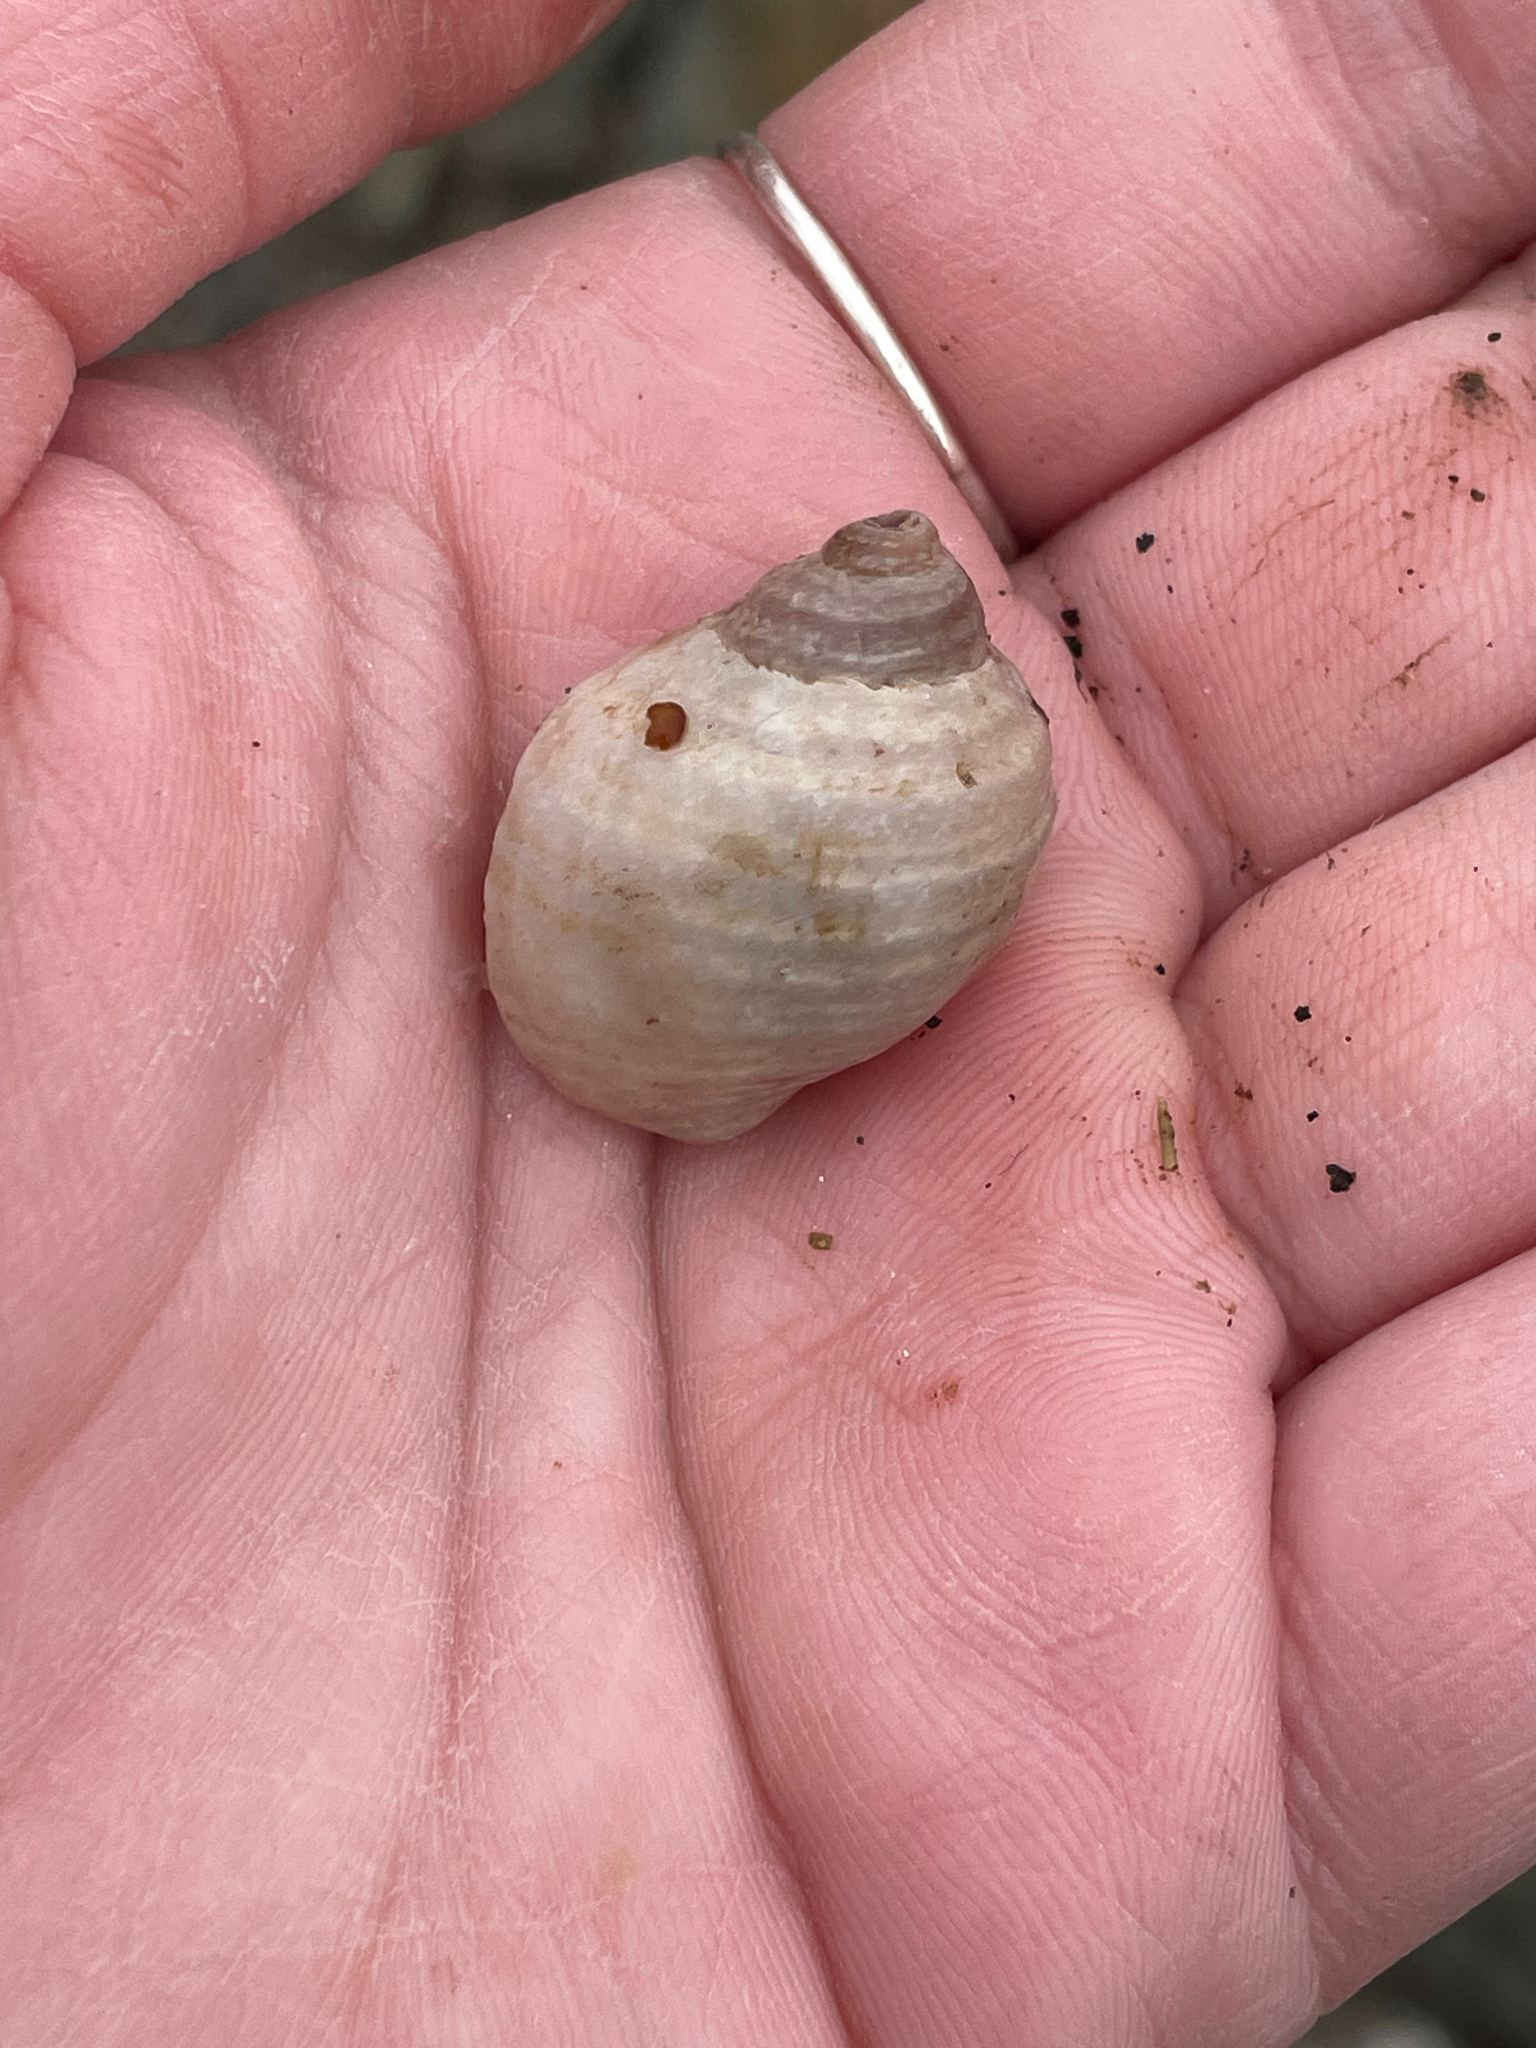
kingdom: Animalia
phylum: Mollusca
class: Gastropoda
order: Neogastropoda
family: Muricidae
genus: Nucella
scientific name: Nucella lapillus
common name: Dog whelk
